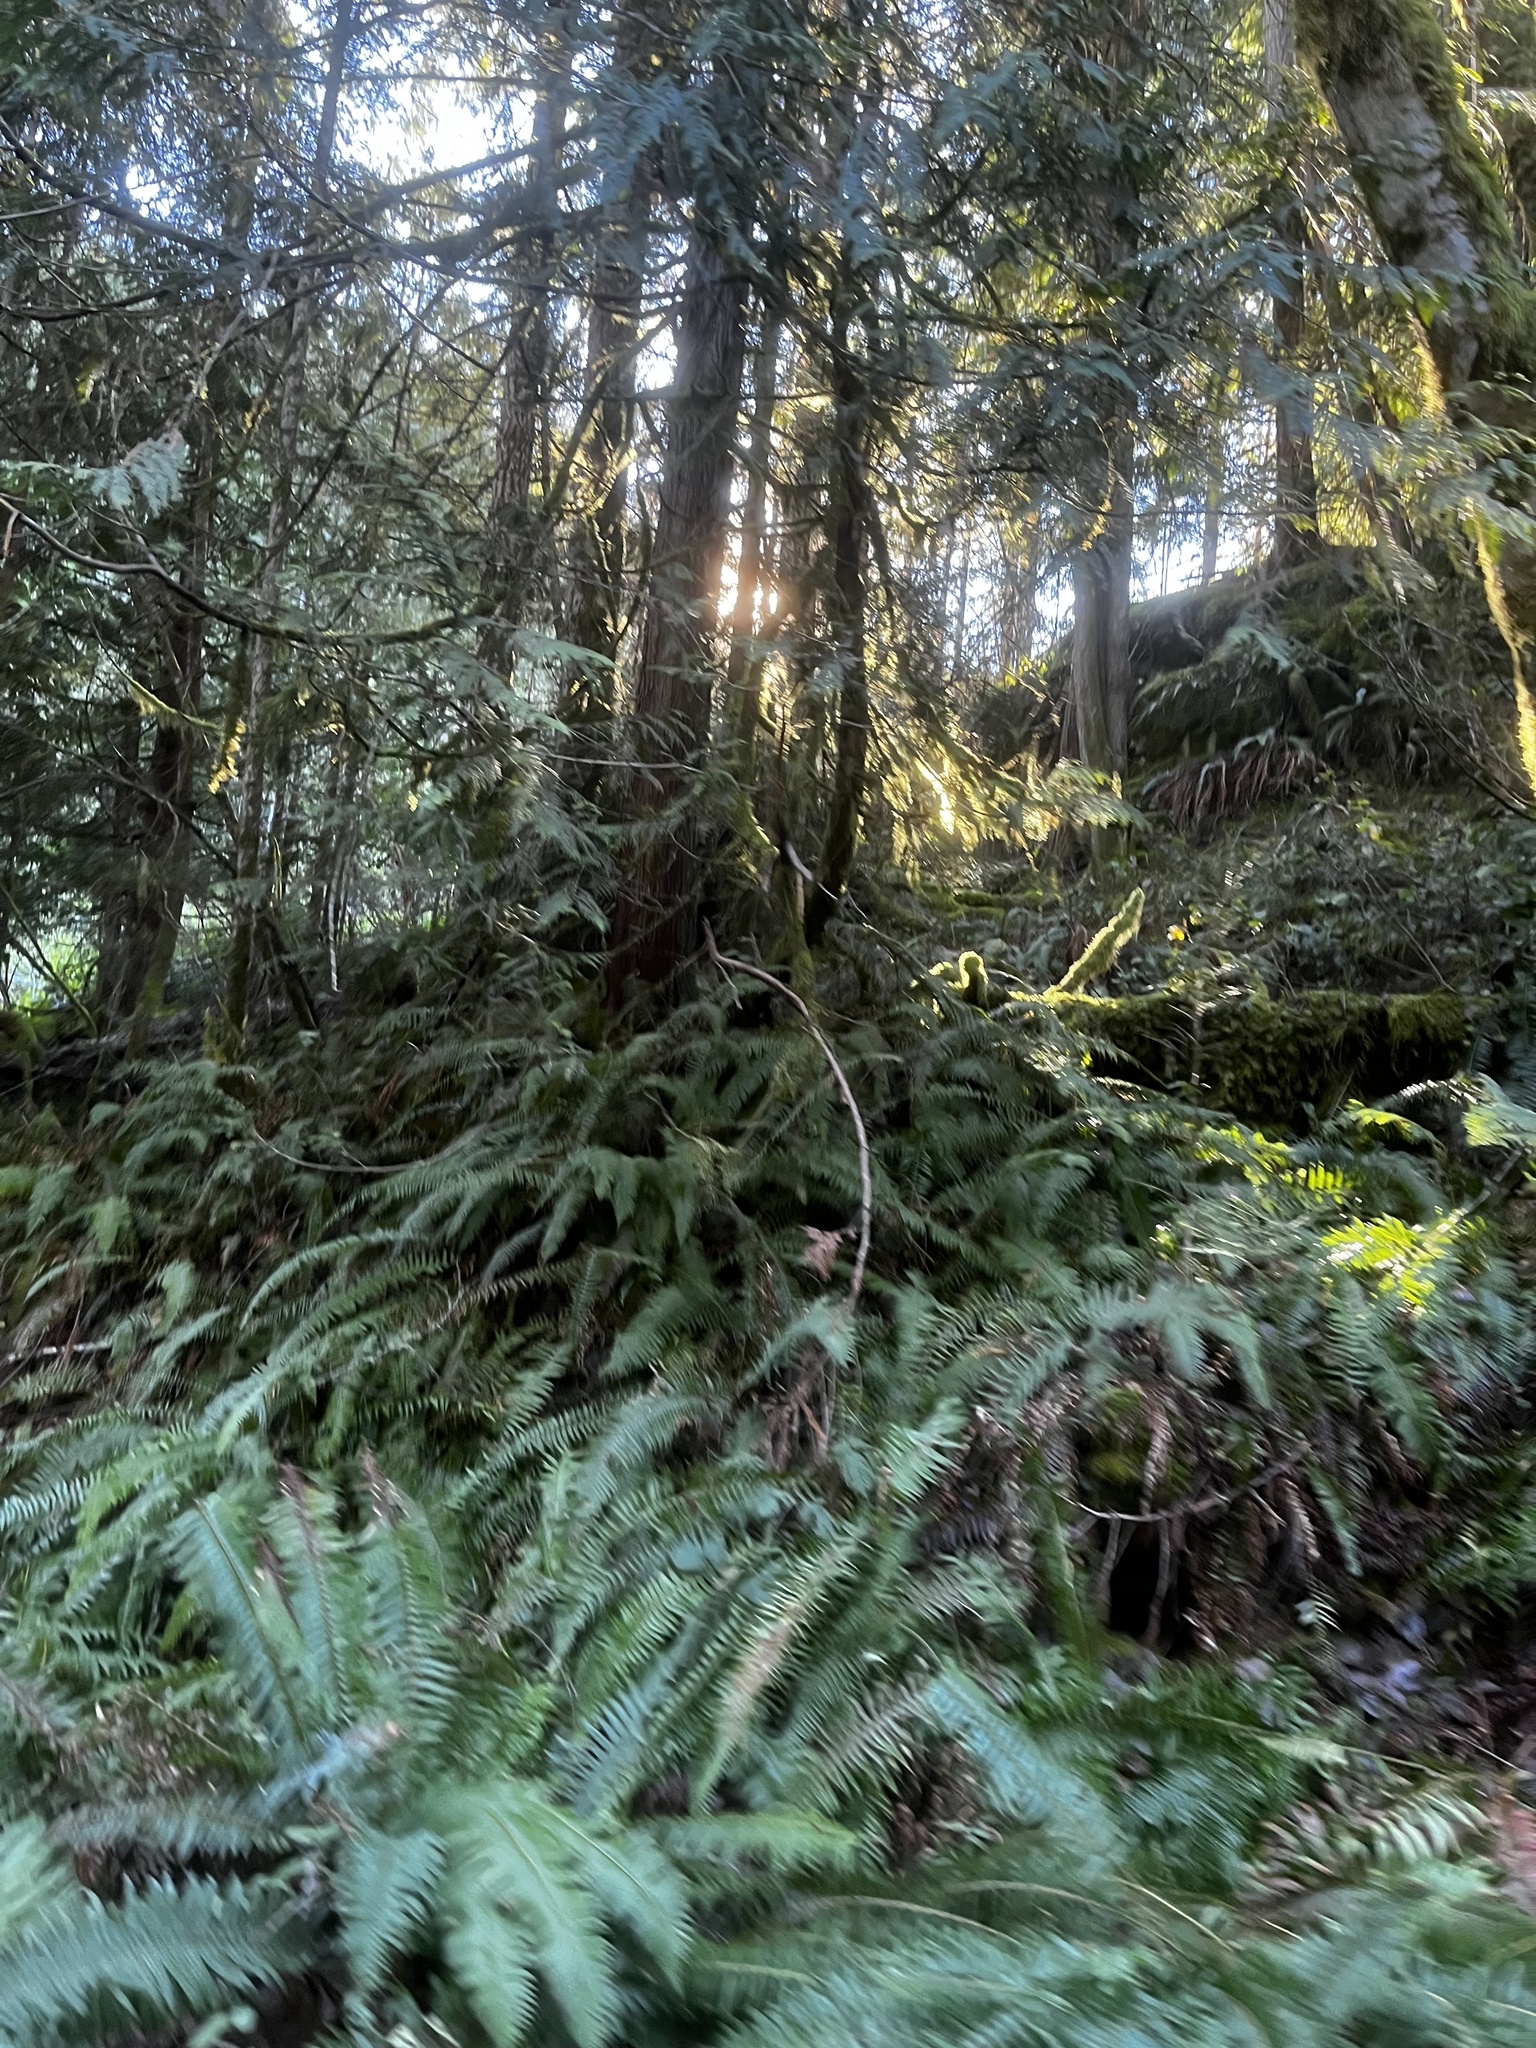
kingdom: Plantae
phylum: Tracheophyta
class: Polypodiopsida
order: Polypodiales
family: Dryopteridaceae
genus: Polystichum
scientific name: Polystichum munitum
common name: Western sword-fern
